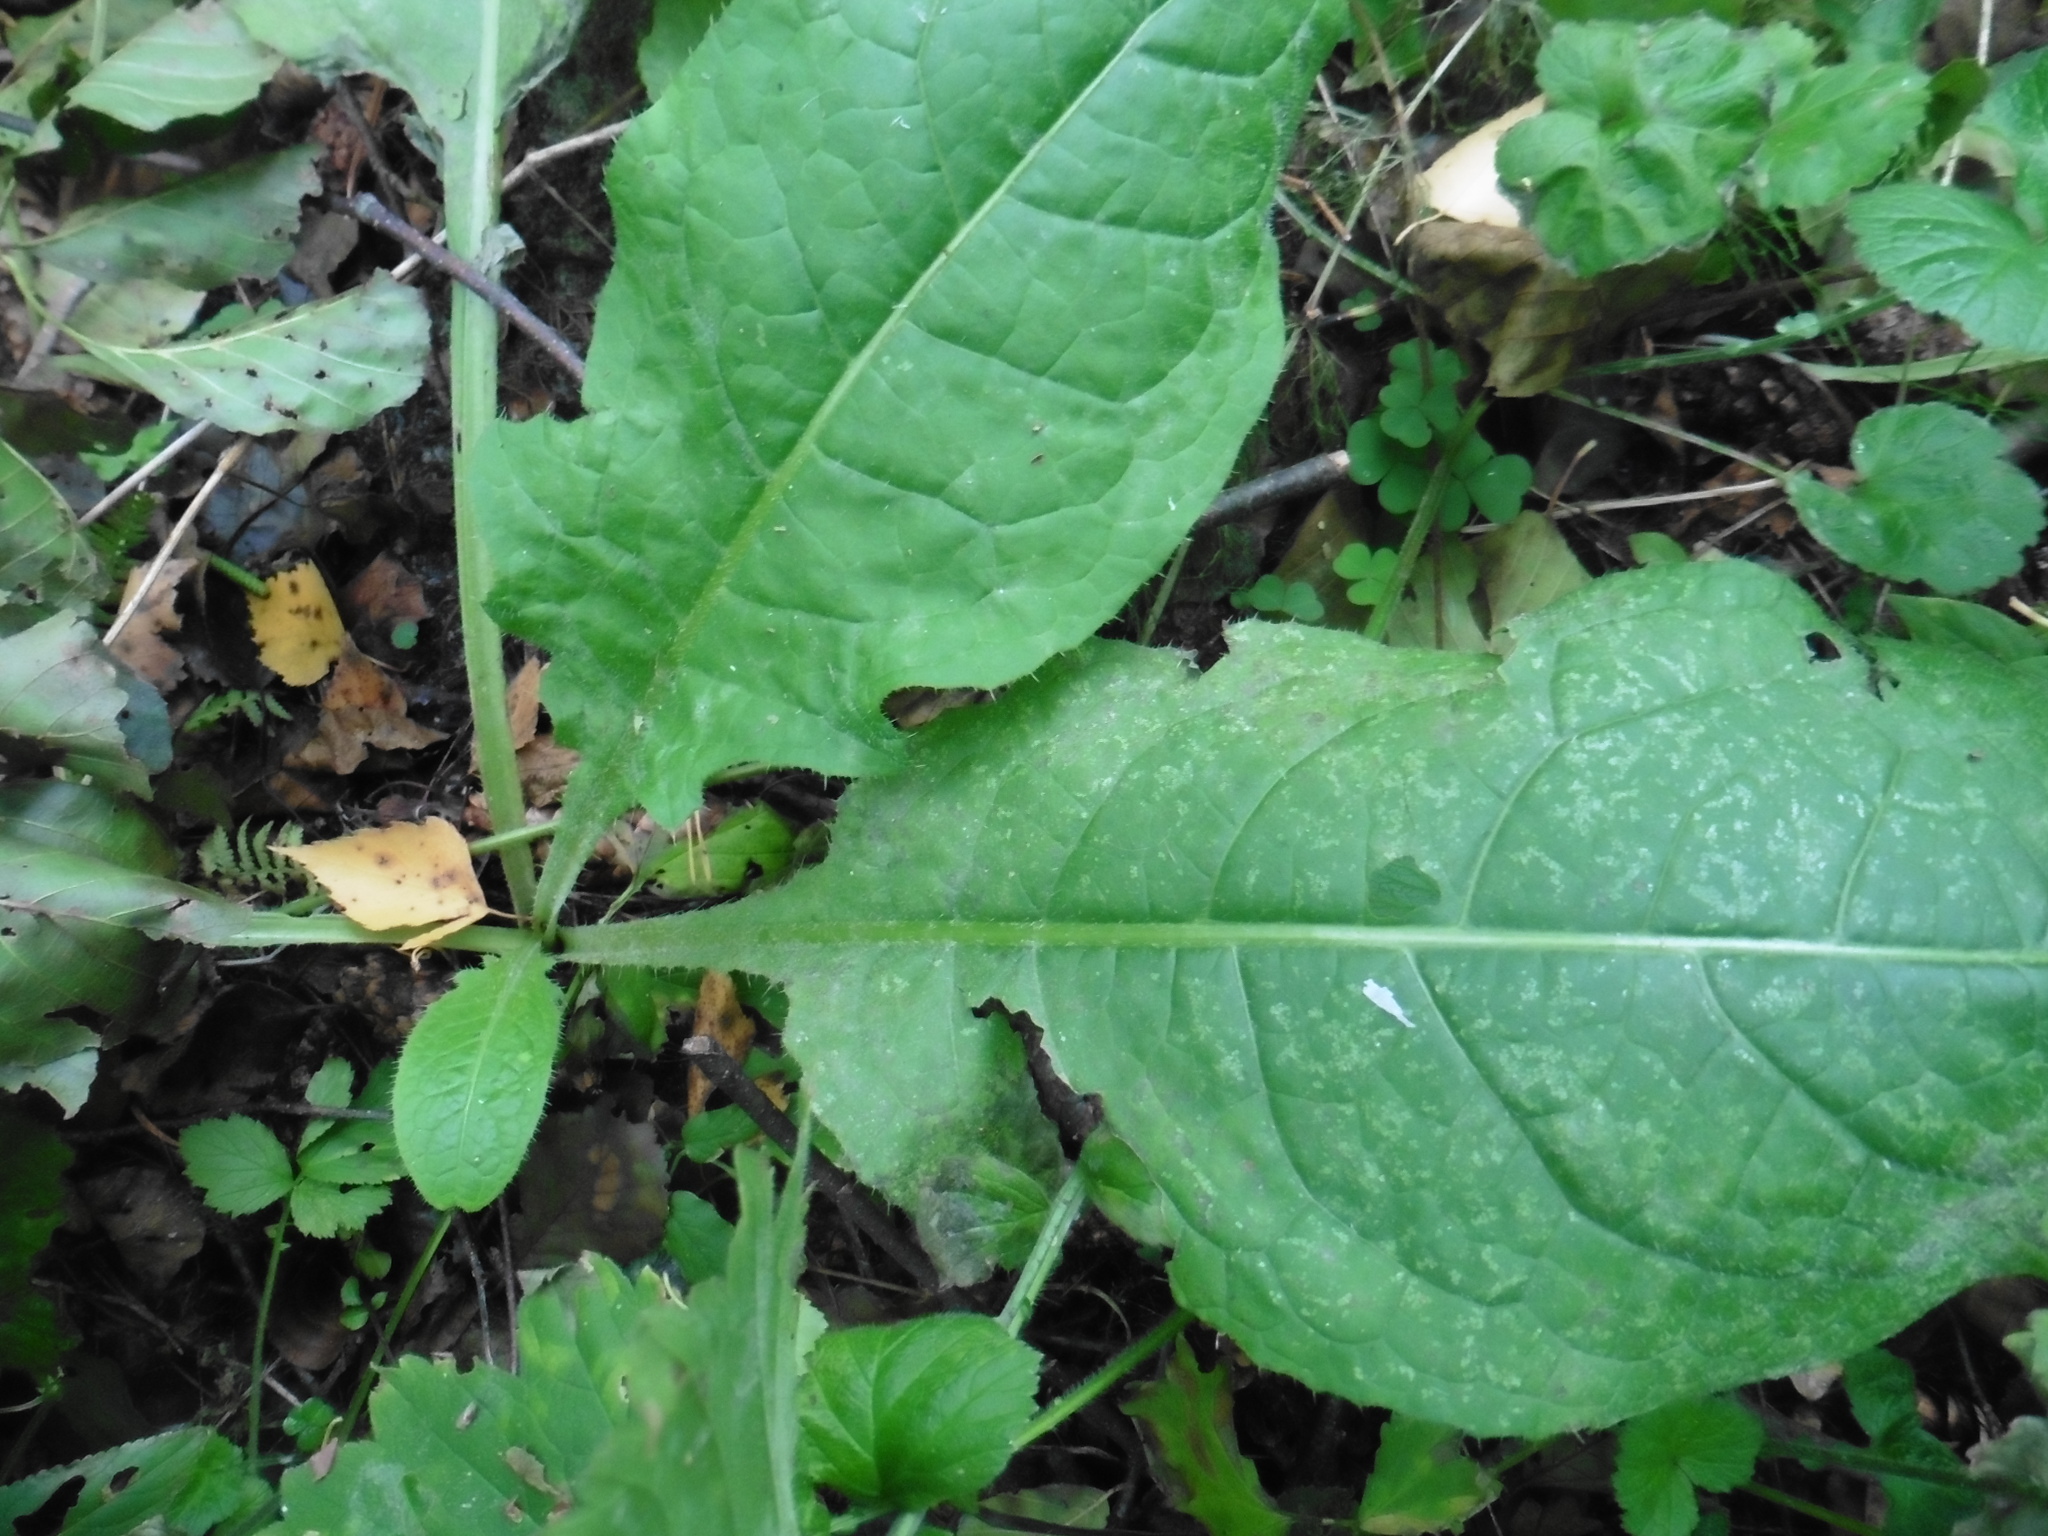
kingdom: Plantae
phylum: Tracheophyta
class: Magnoliopsida
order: Asterales
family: Asteraceae
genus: Cirsium
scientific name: Cirsium oleraceum
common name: Cabbage thistle
